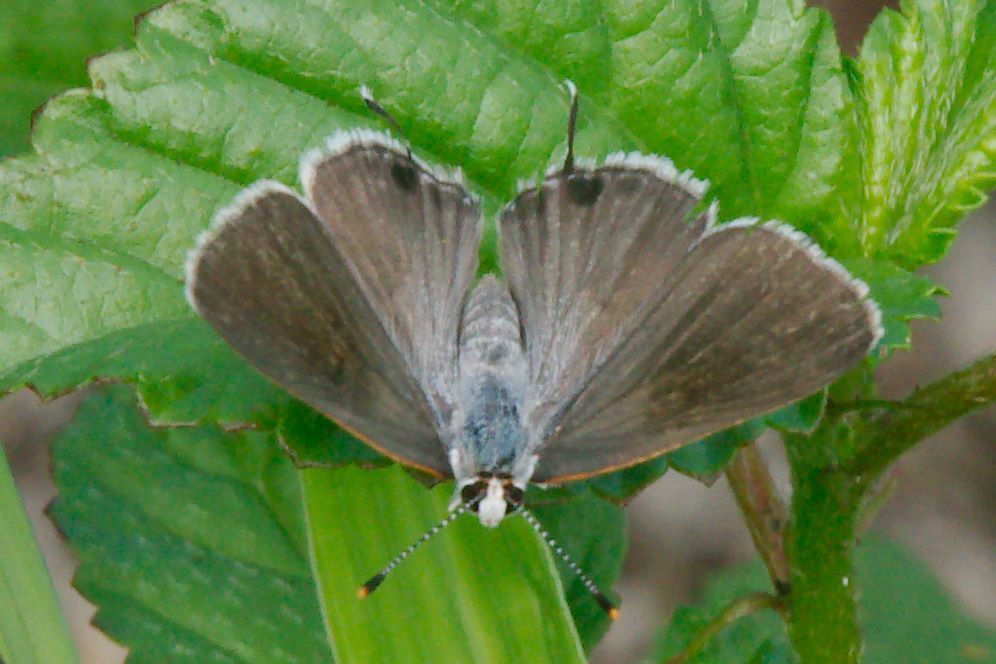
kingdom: Animalia
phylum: Arthropoda
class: Insecta
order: Lepidoptera
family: Lycaenidae
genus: Callicista
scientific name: Callicista columella
